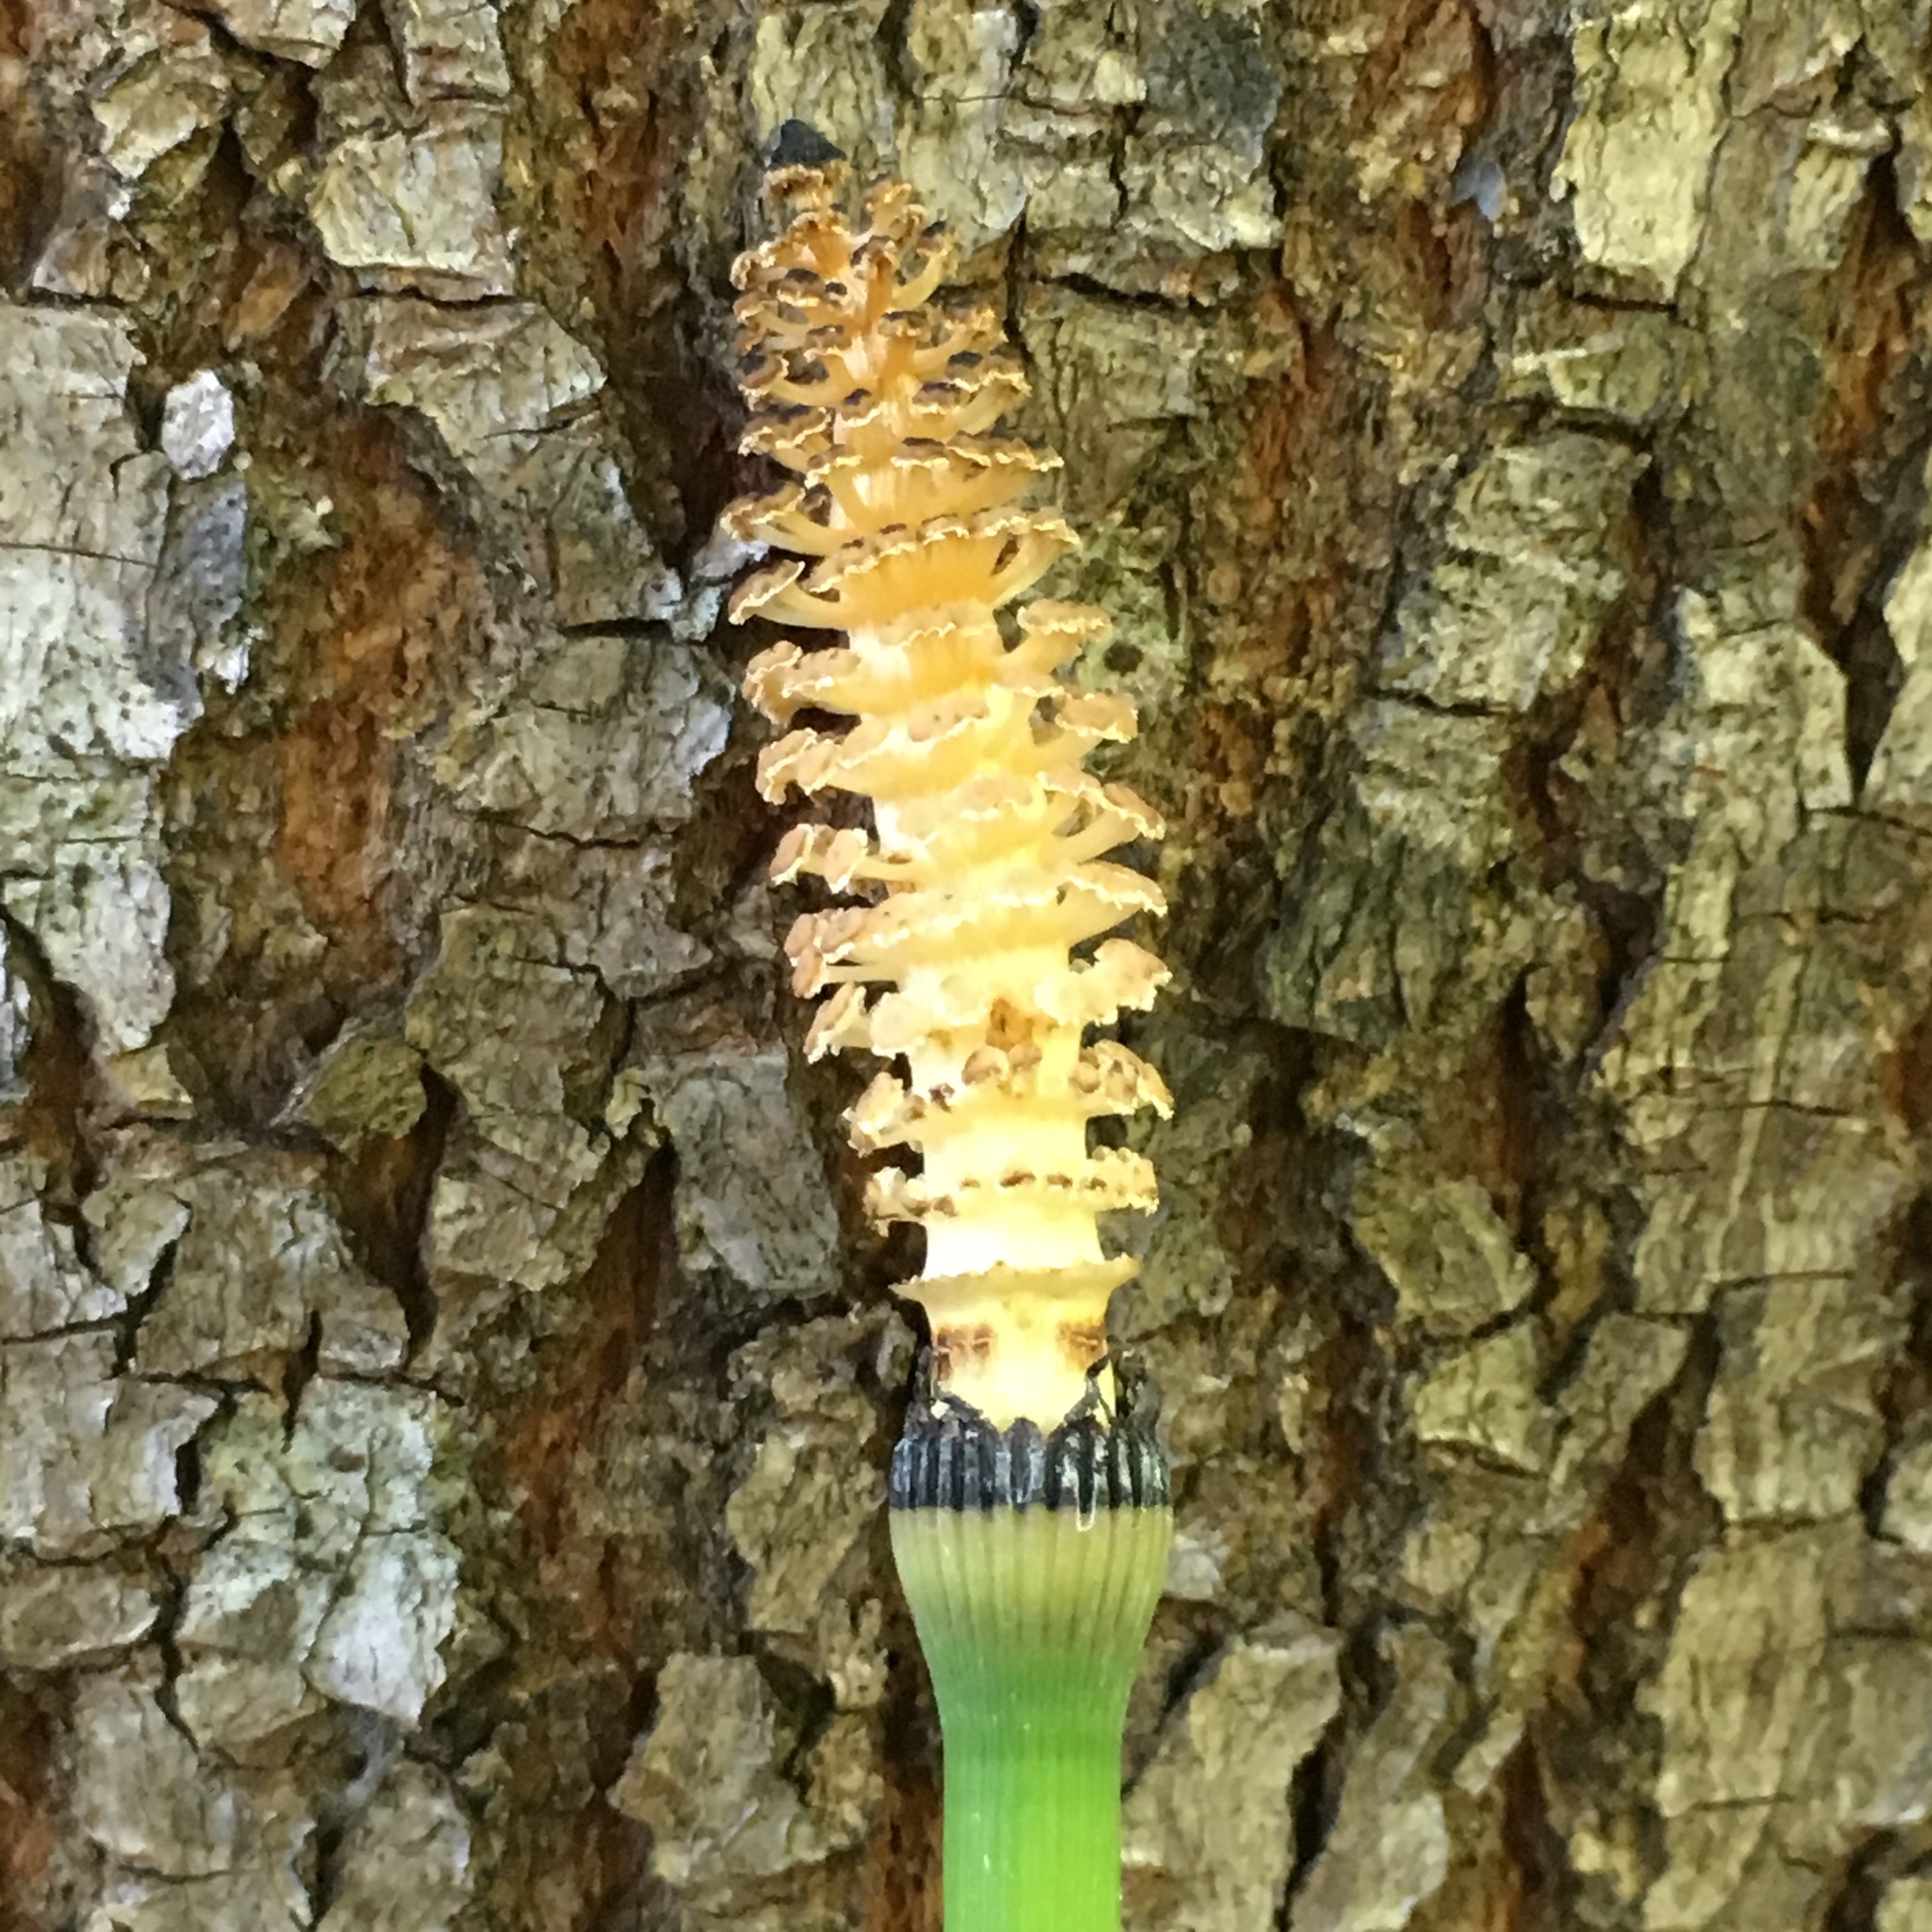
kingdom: Plantae
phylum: Tracheophyta
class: Polypodiopsida
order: Equisetales
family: Equisetaceae
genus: Equisetum
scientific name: Equisetum hyemale
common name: Rough horsetail
